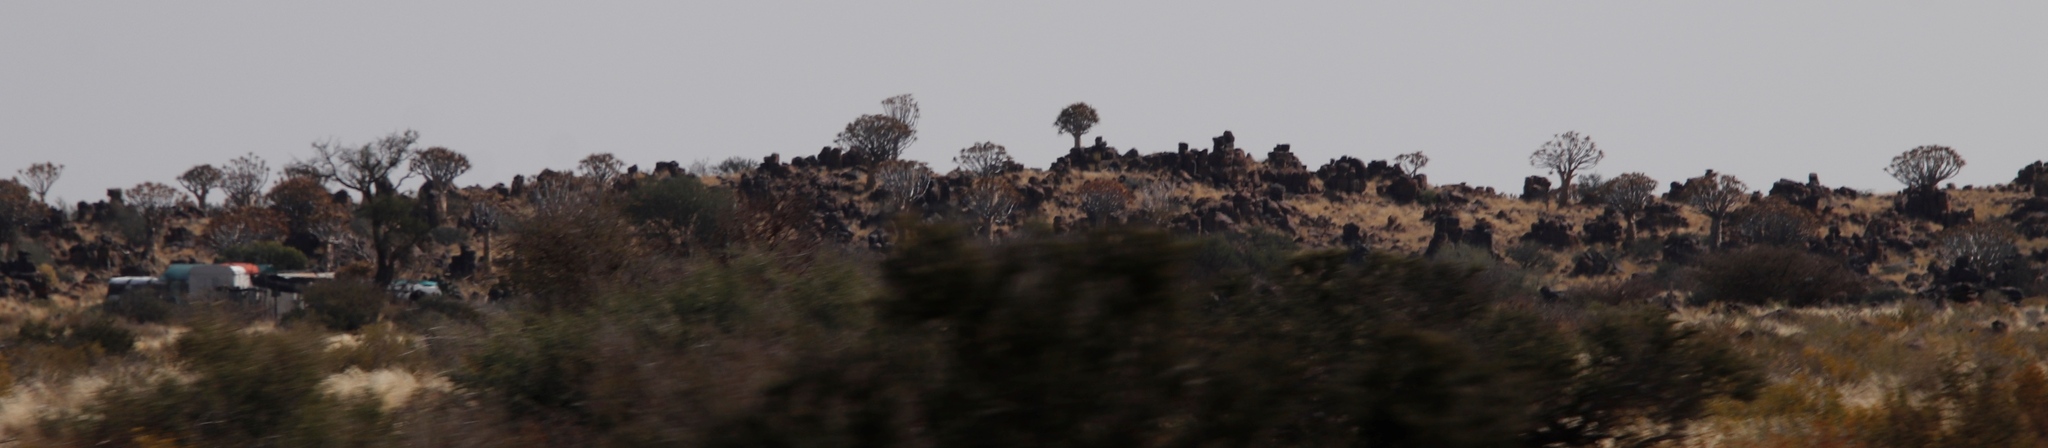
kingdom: Plantae
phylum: Tracheophyta
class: Liliopsida
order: Asparagales
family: Asphodelaceae
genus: Aloidendron
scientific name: Aloidendron dichotomum
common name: Quiver tree
